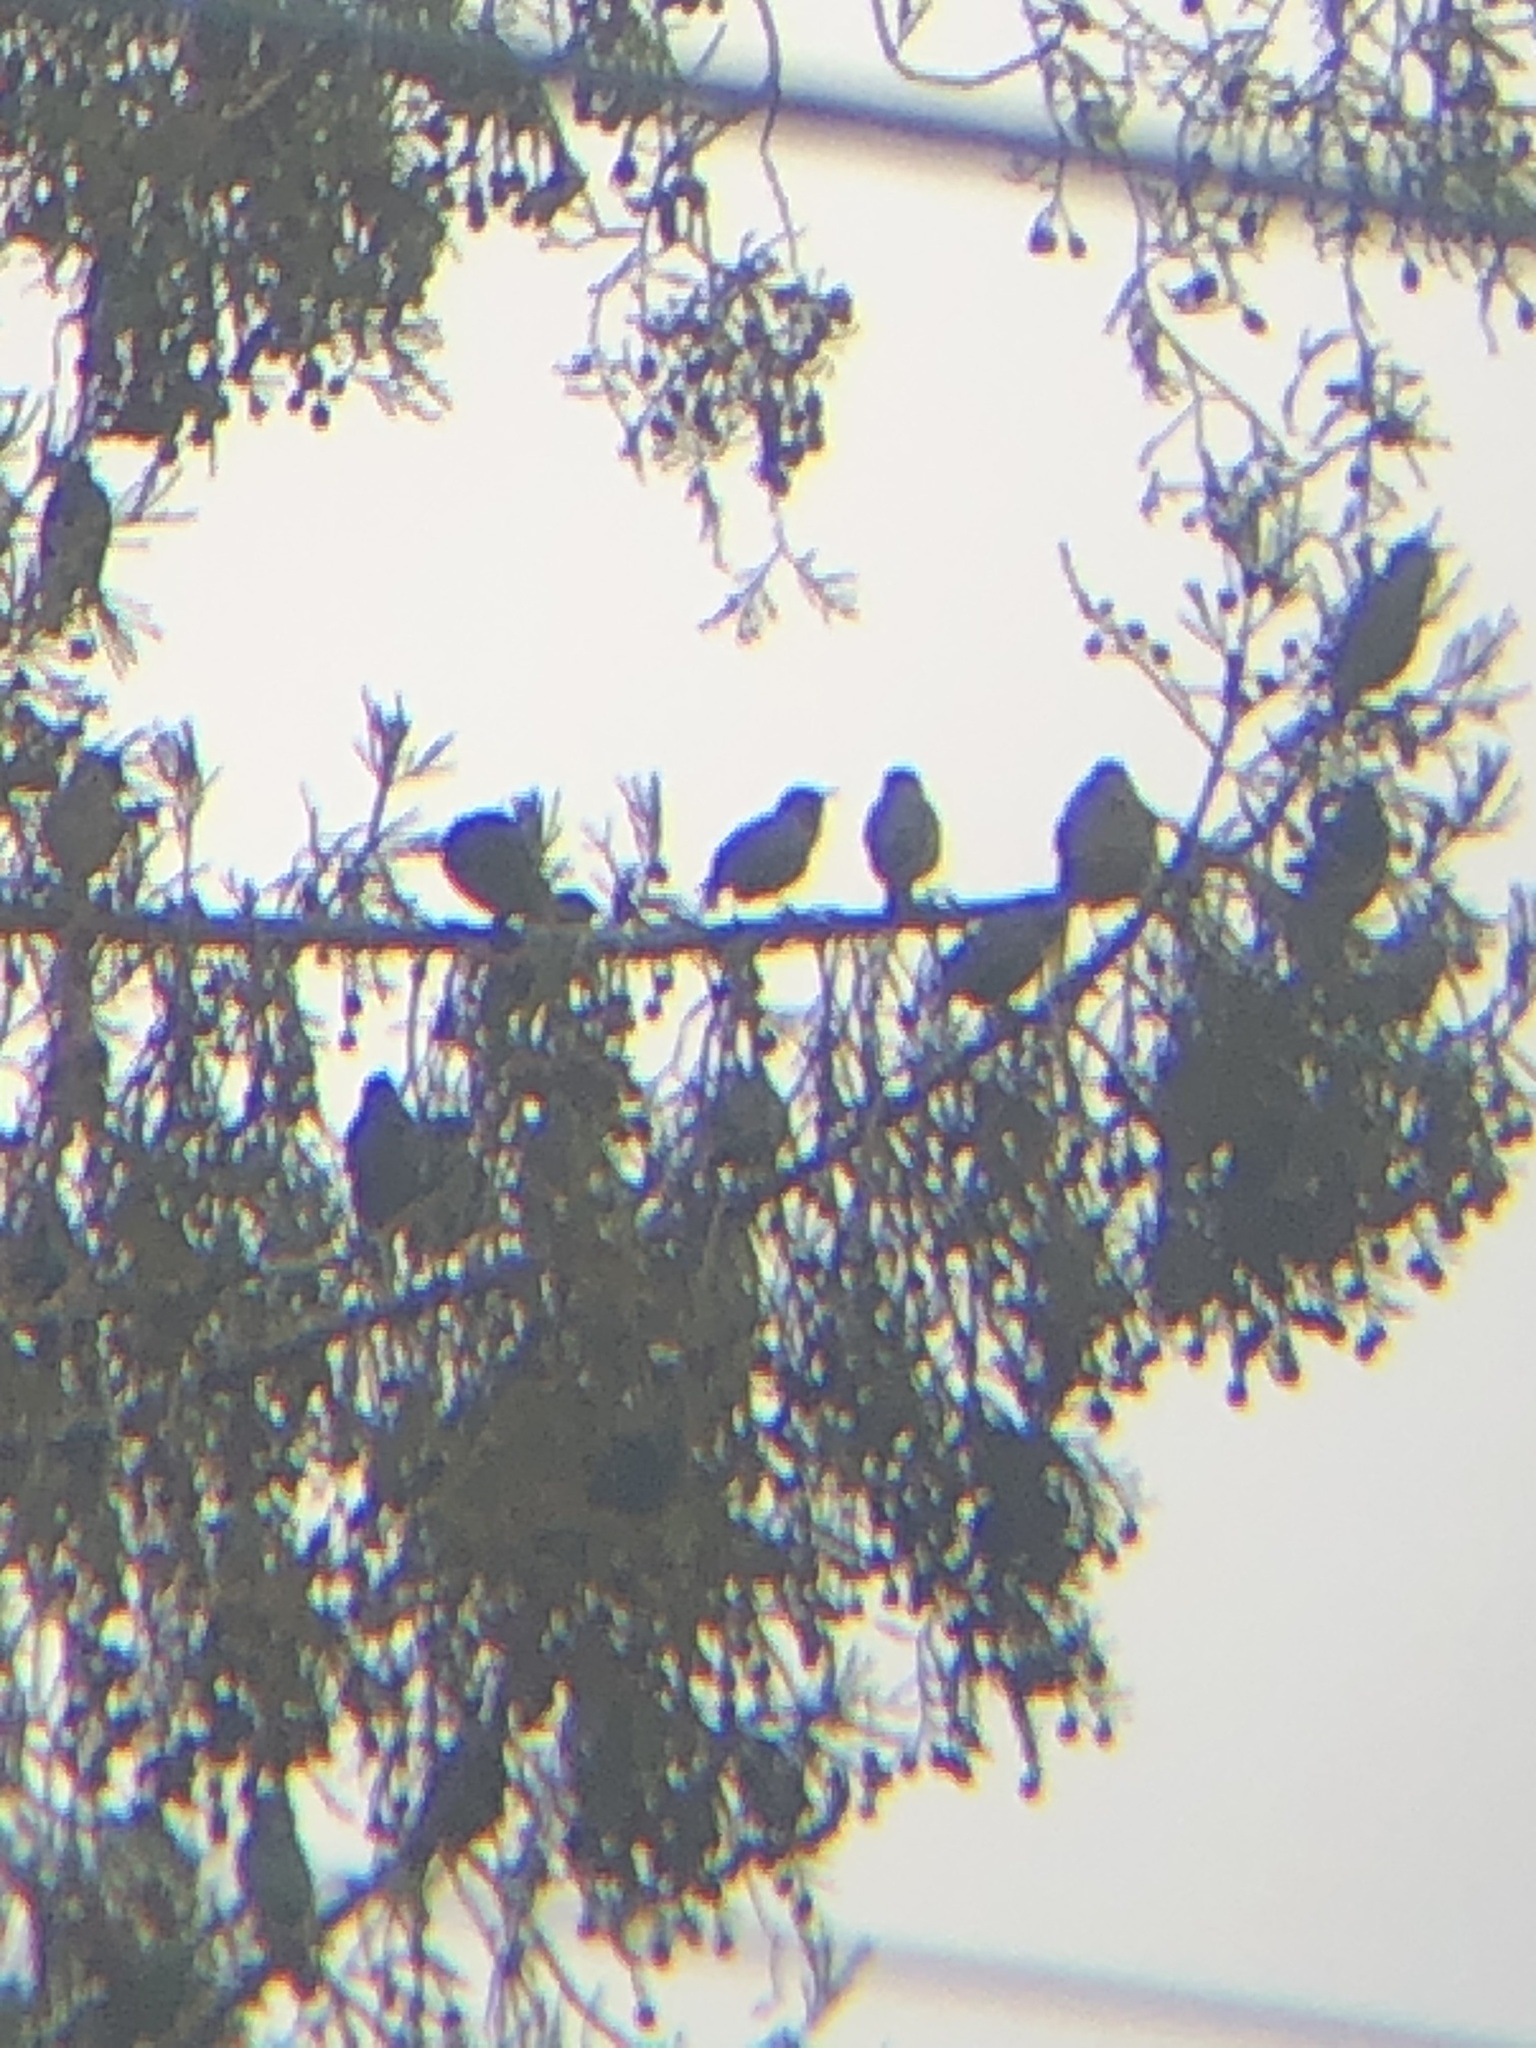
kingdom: Animalia
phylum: Chordata
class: Aves
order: Passeriformes
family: Sturnidae
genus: Sturnus
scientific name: Sturnus vulgaris
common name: Common starling
